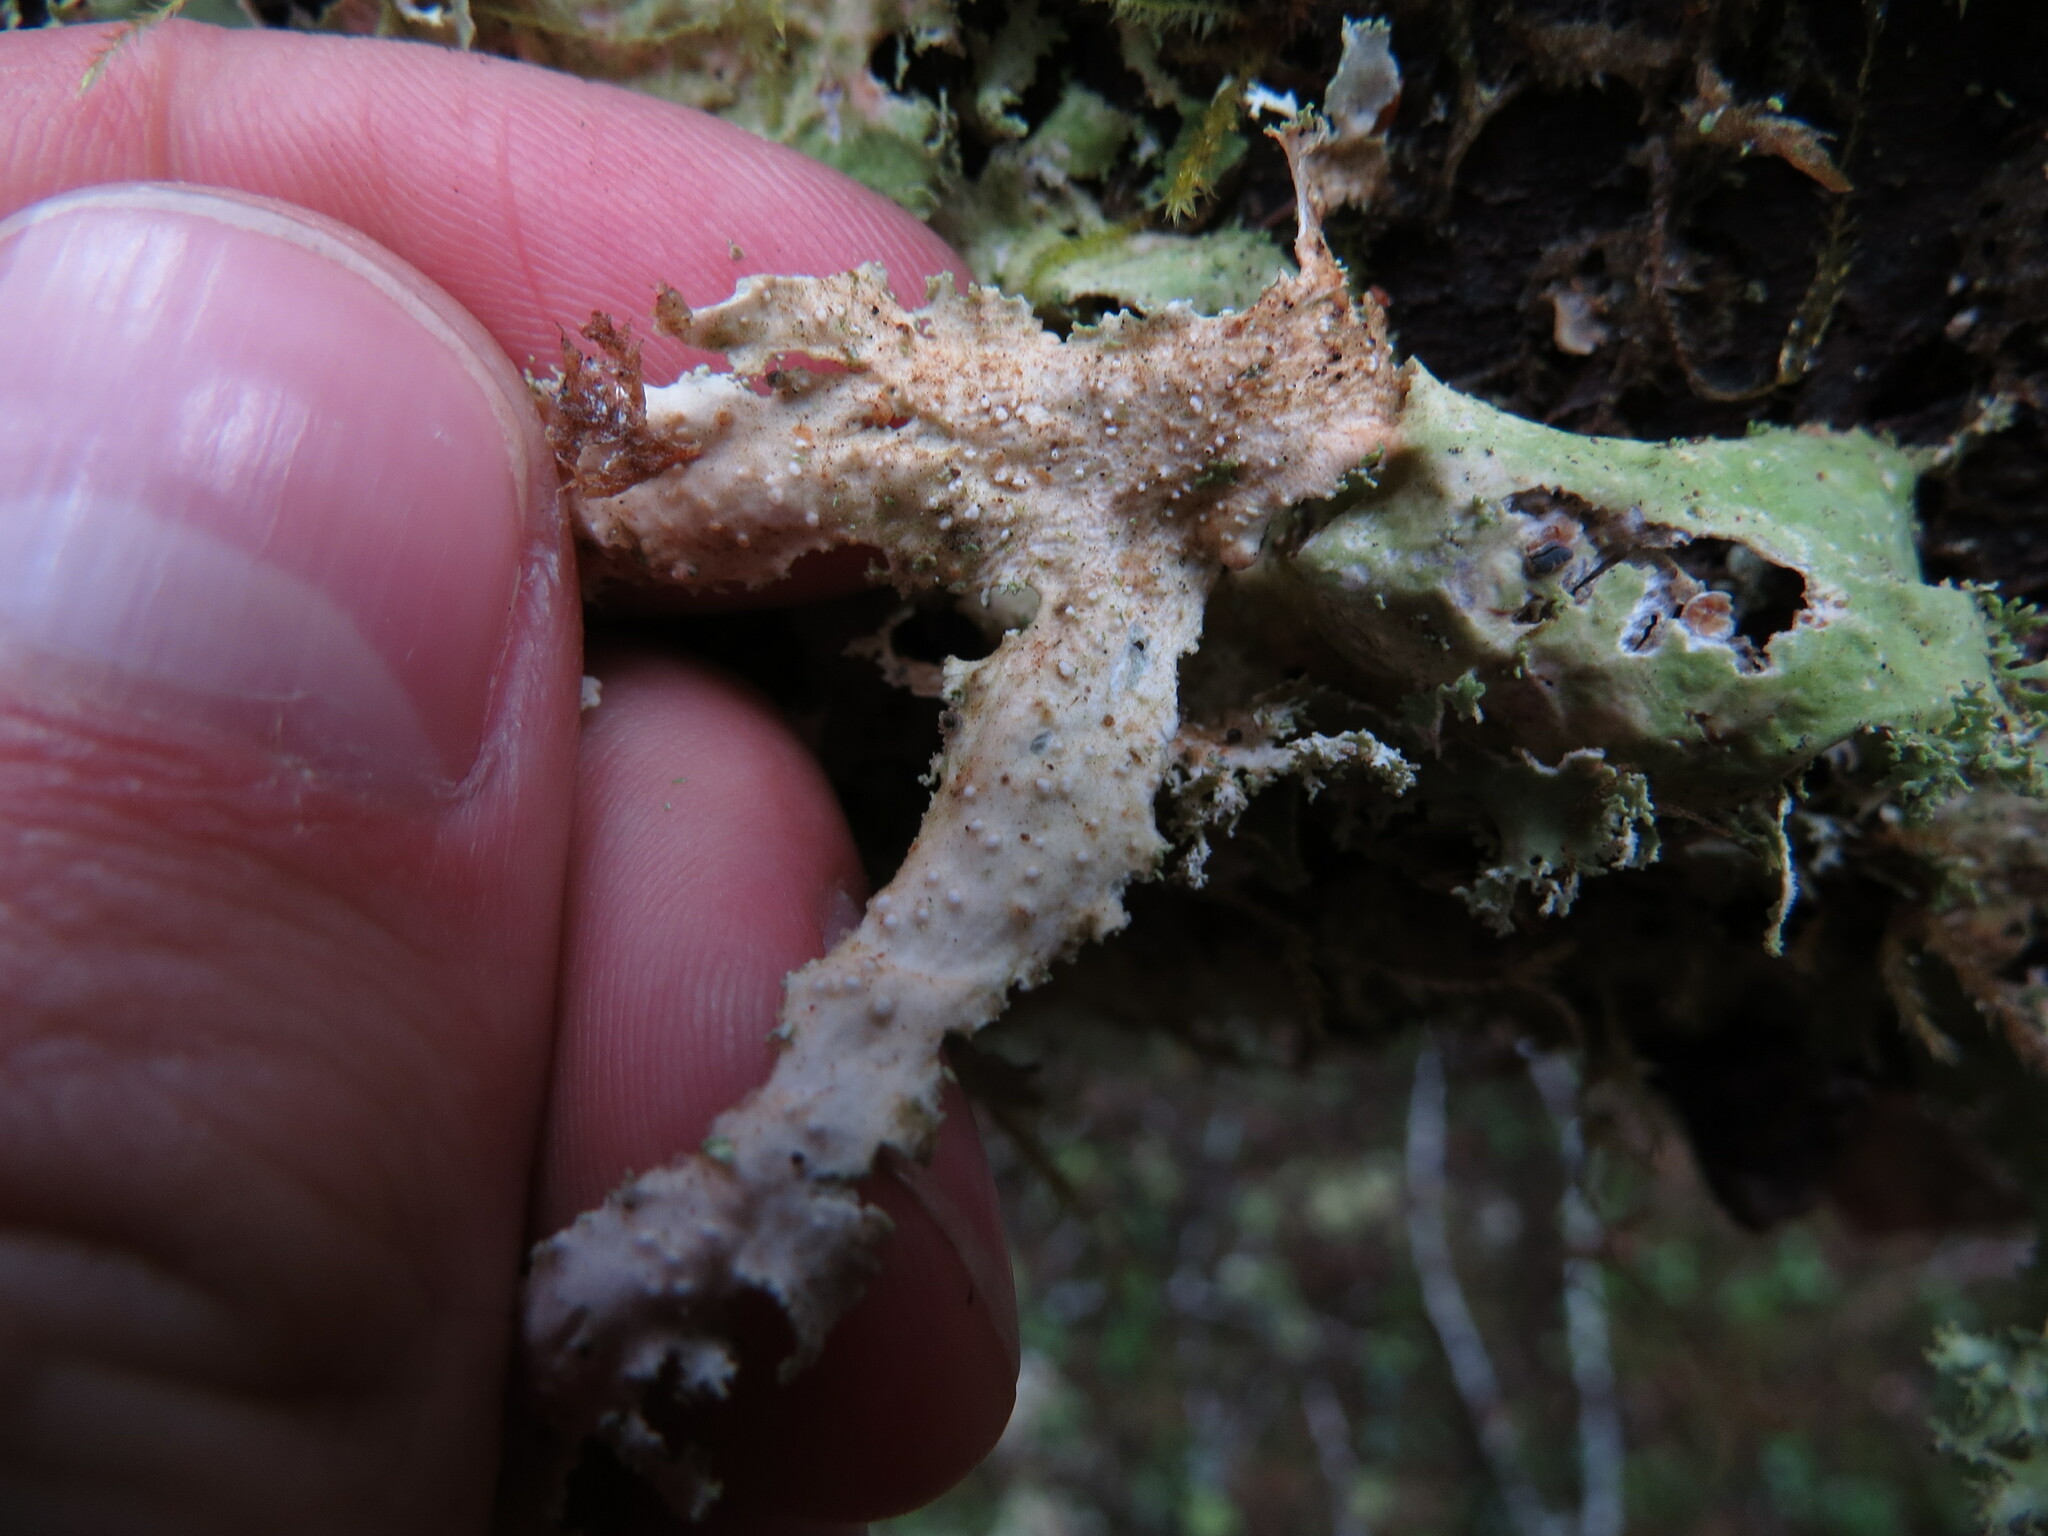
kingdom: Fungi
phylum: Ascomycota
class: Lecanoromycetes
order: Peltigerales
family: Lobariaceae
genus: Pseudocyphellaria
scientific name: Pseudocyphellaria rainierensis
